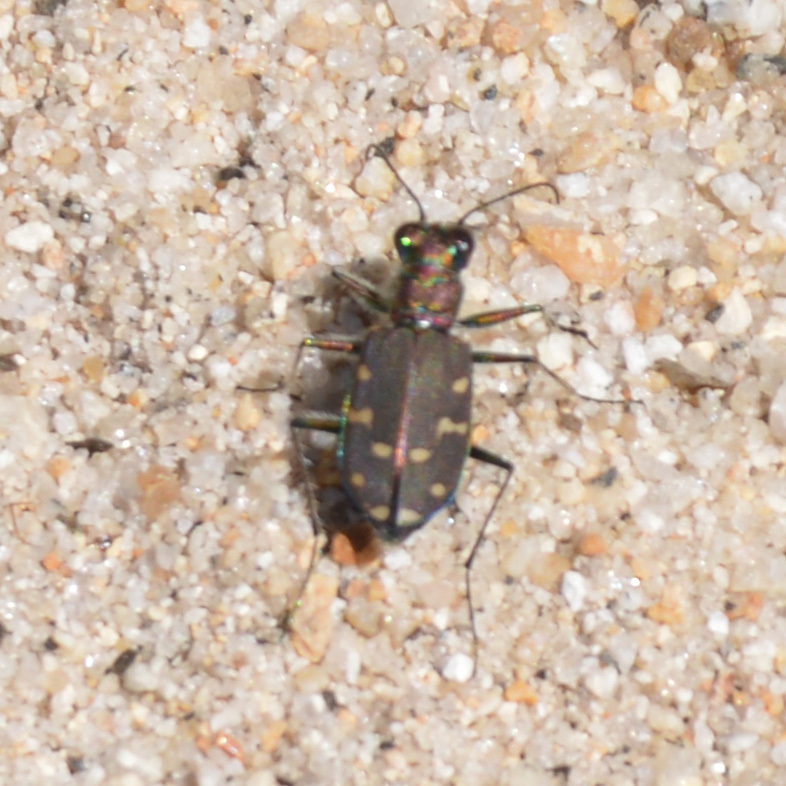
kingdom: Animalia
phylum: Arthropoda
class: Insecta
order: Coleoptera
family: Carabidae
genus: Cicindela
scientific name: Cicindela oregona
